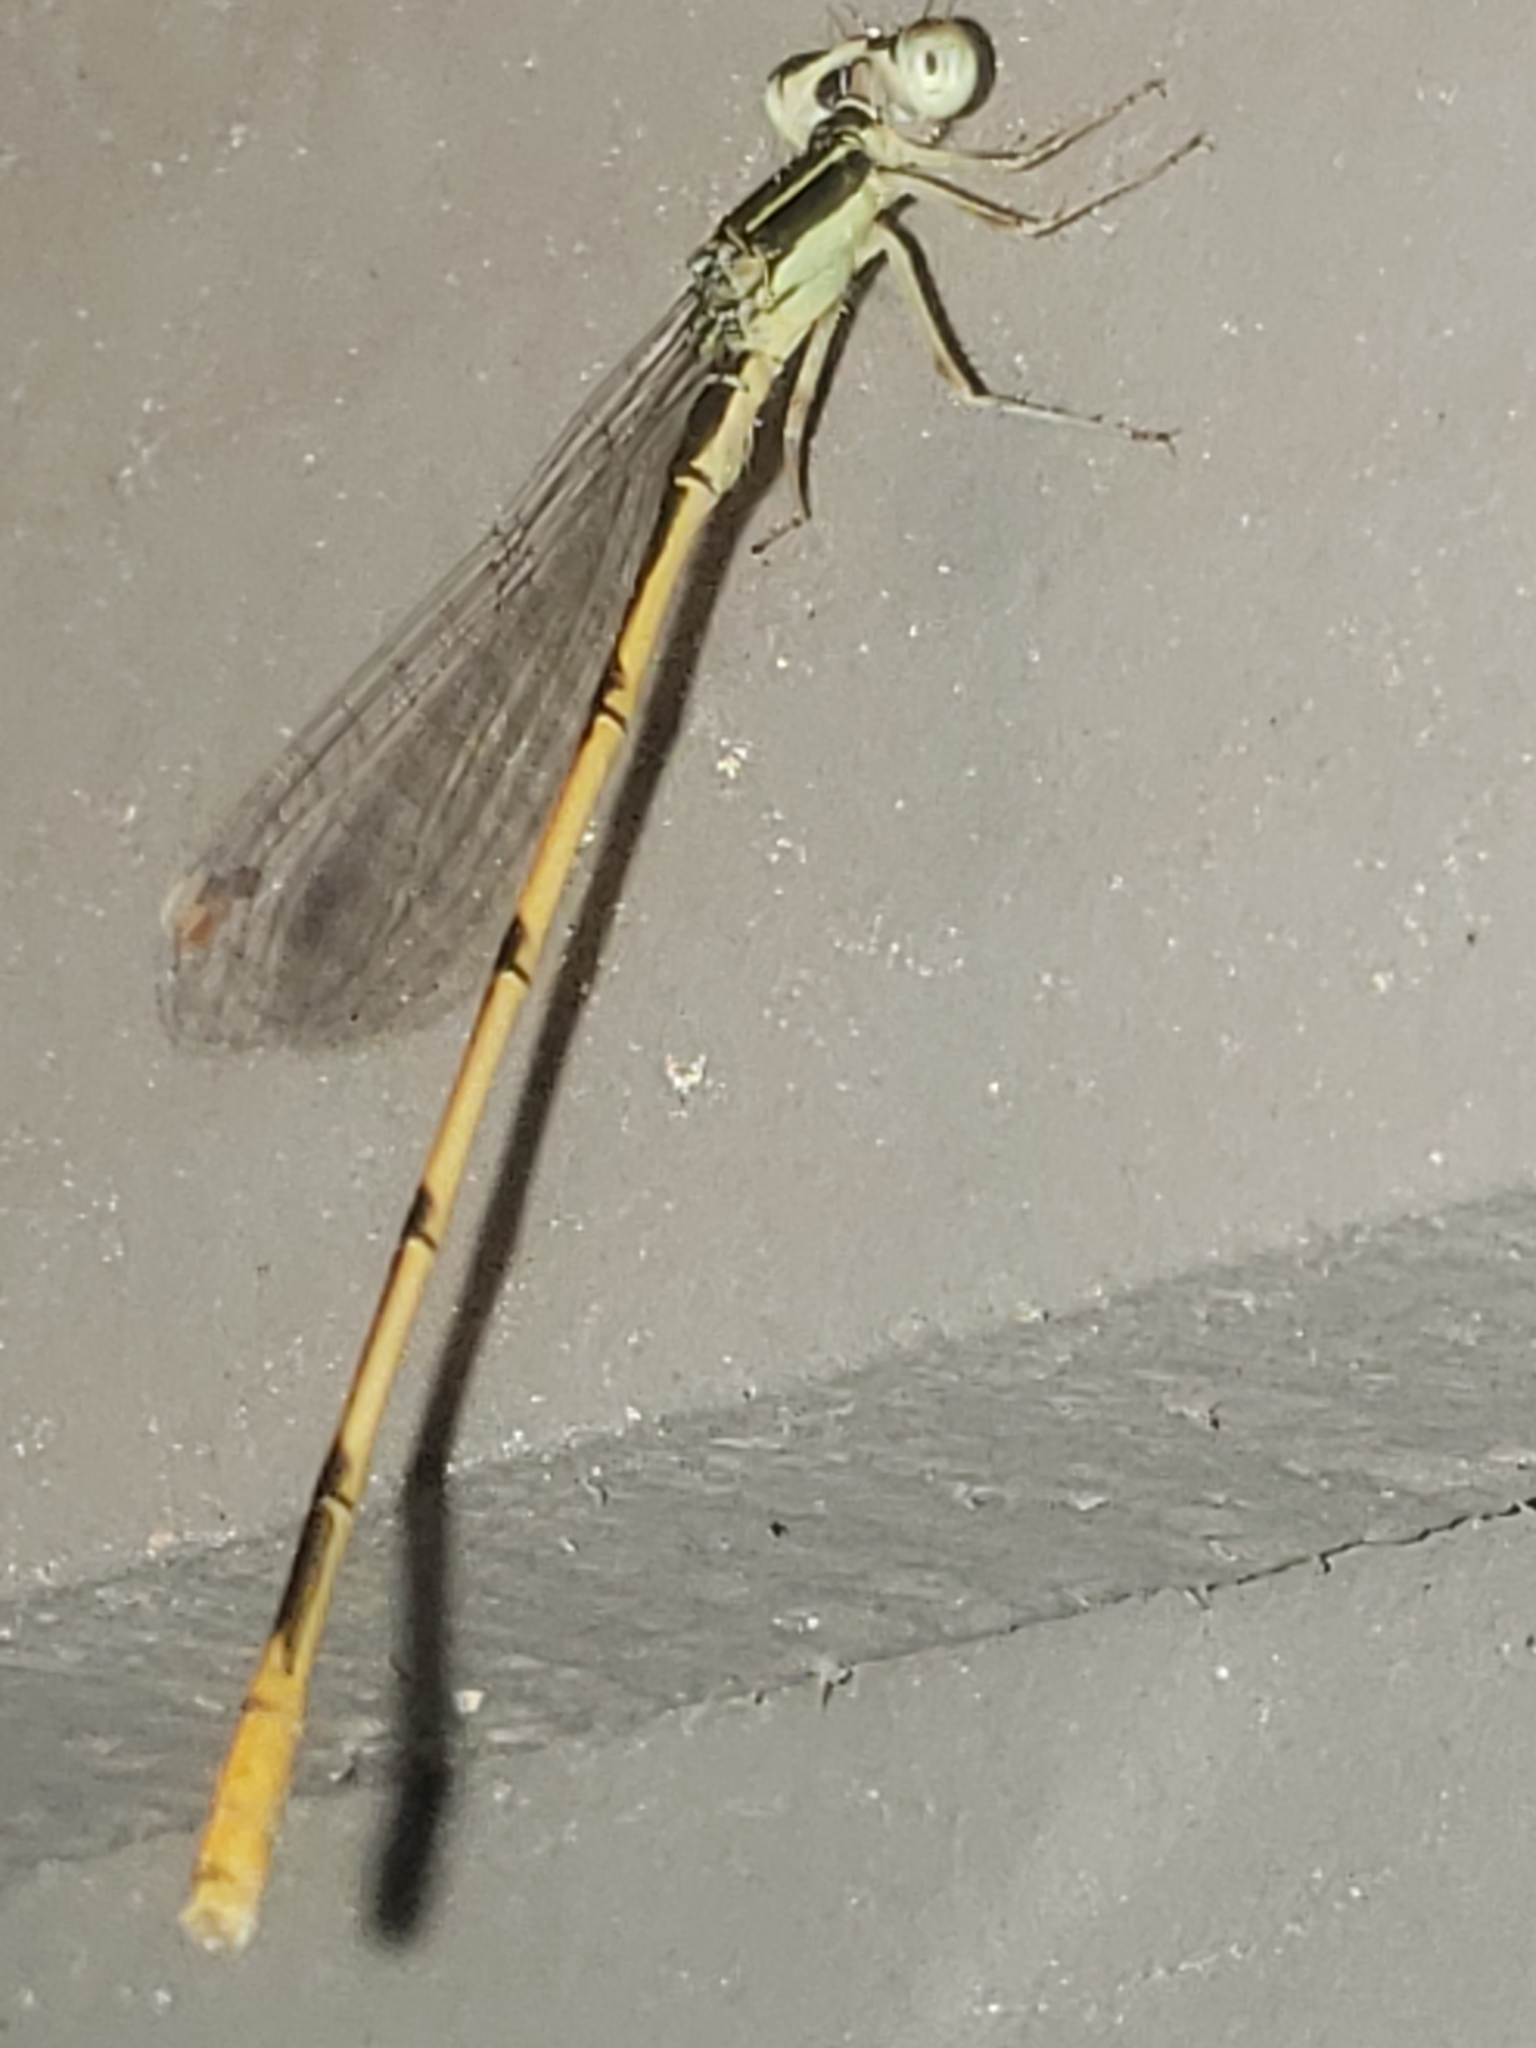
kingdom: Animalia
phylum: Arthropoda
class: Insecta
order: Odonata
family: Coenagrionidae
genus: Ischnura
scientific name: Ischnura hastata
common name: Citrine forktail
